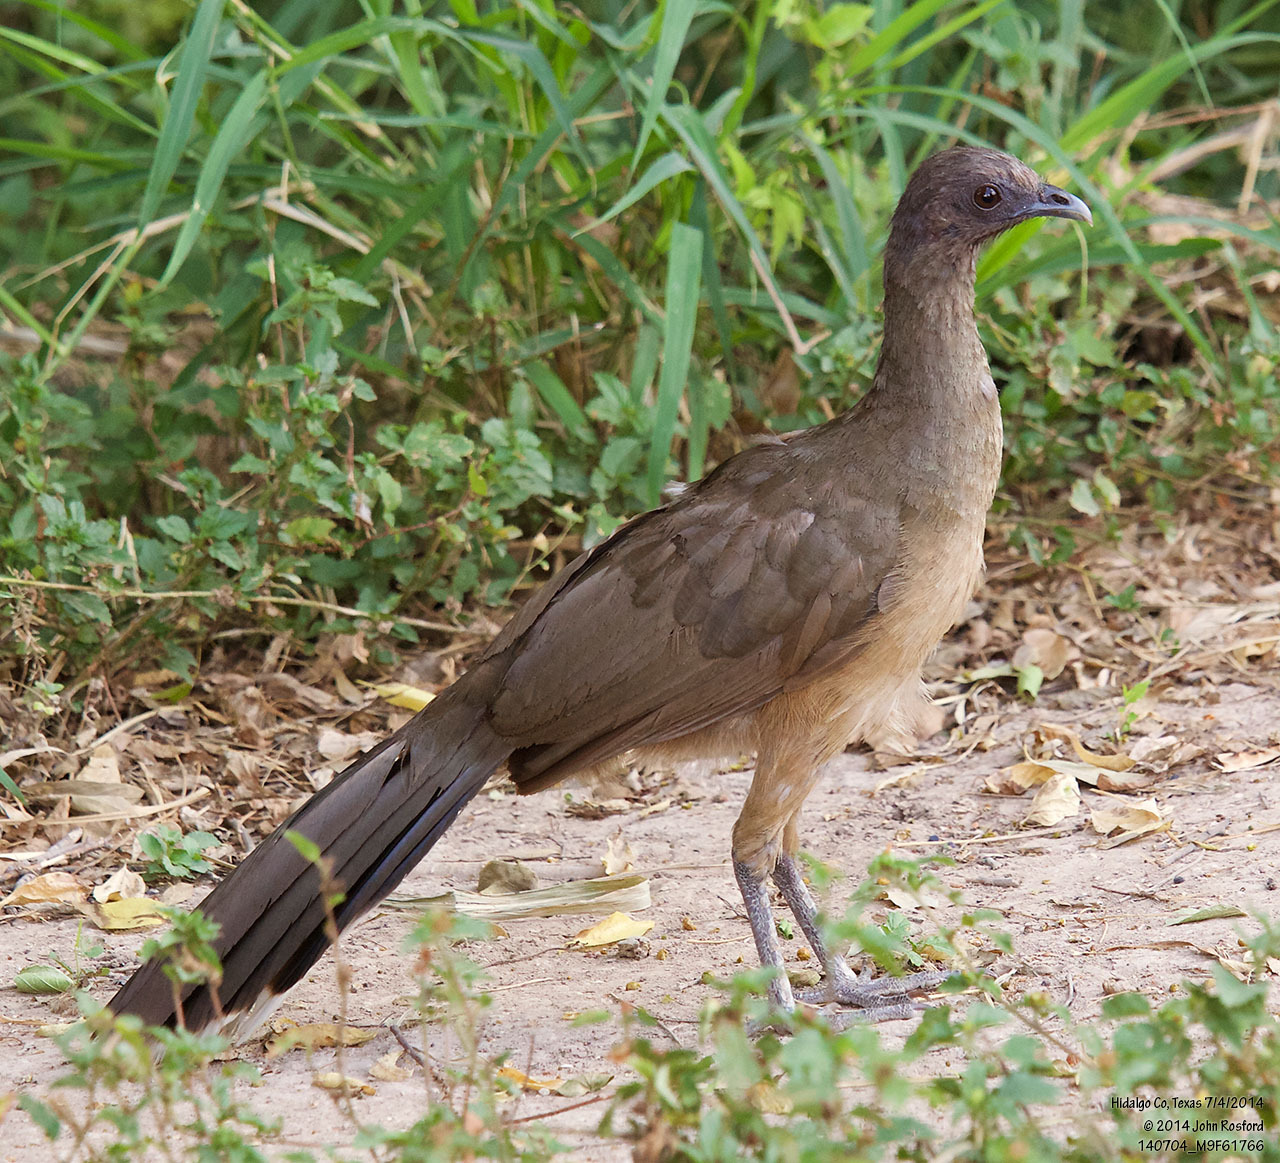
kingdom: Animalia
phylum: Chordata
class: Aves
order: Galliformes
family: Cracidae
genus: Ortalis
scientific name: Ortalis vetula
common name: Plain chachalaca
